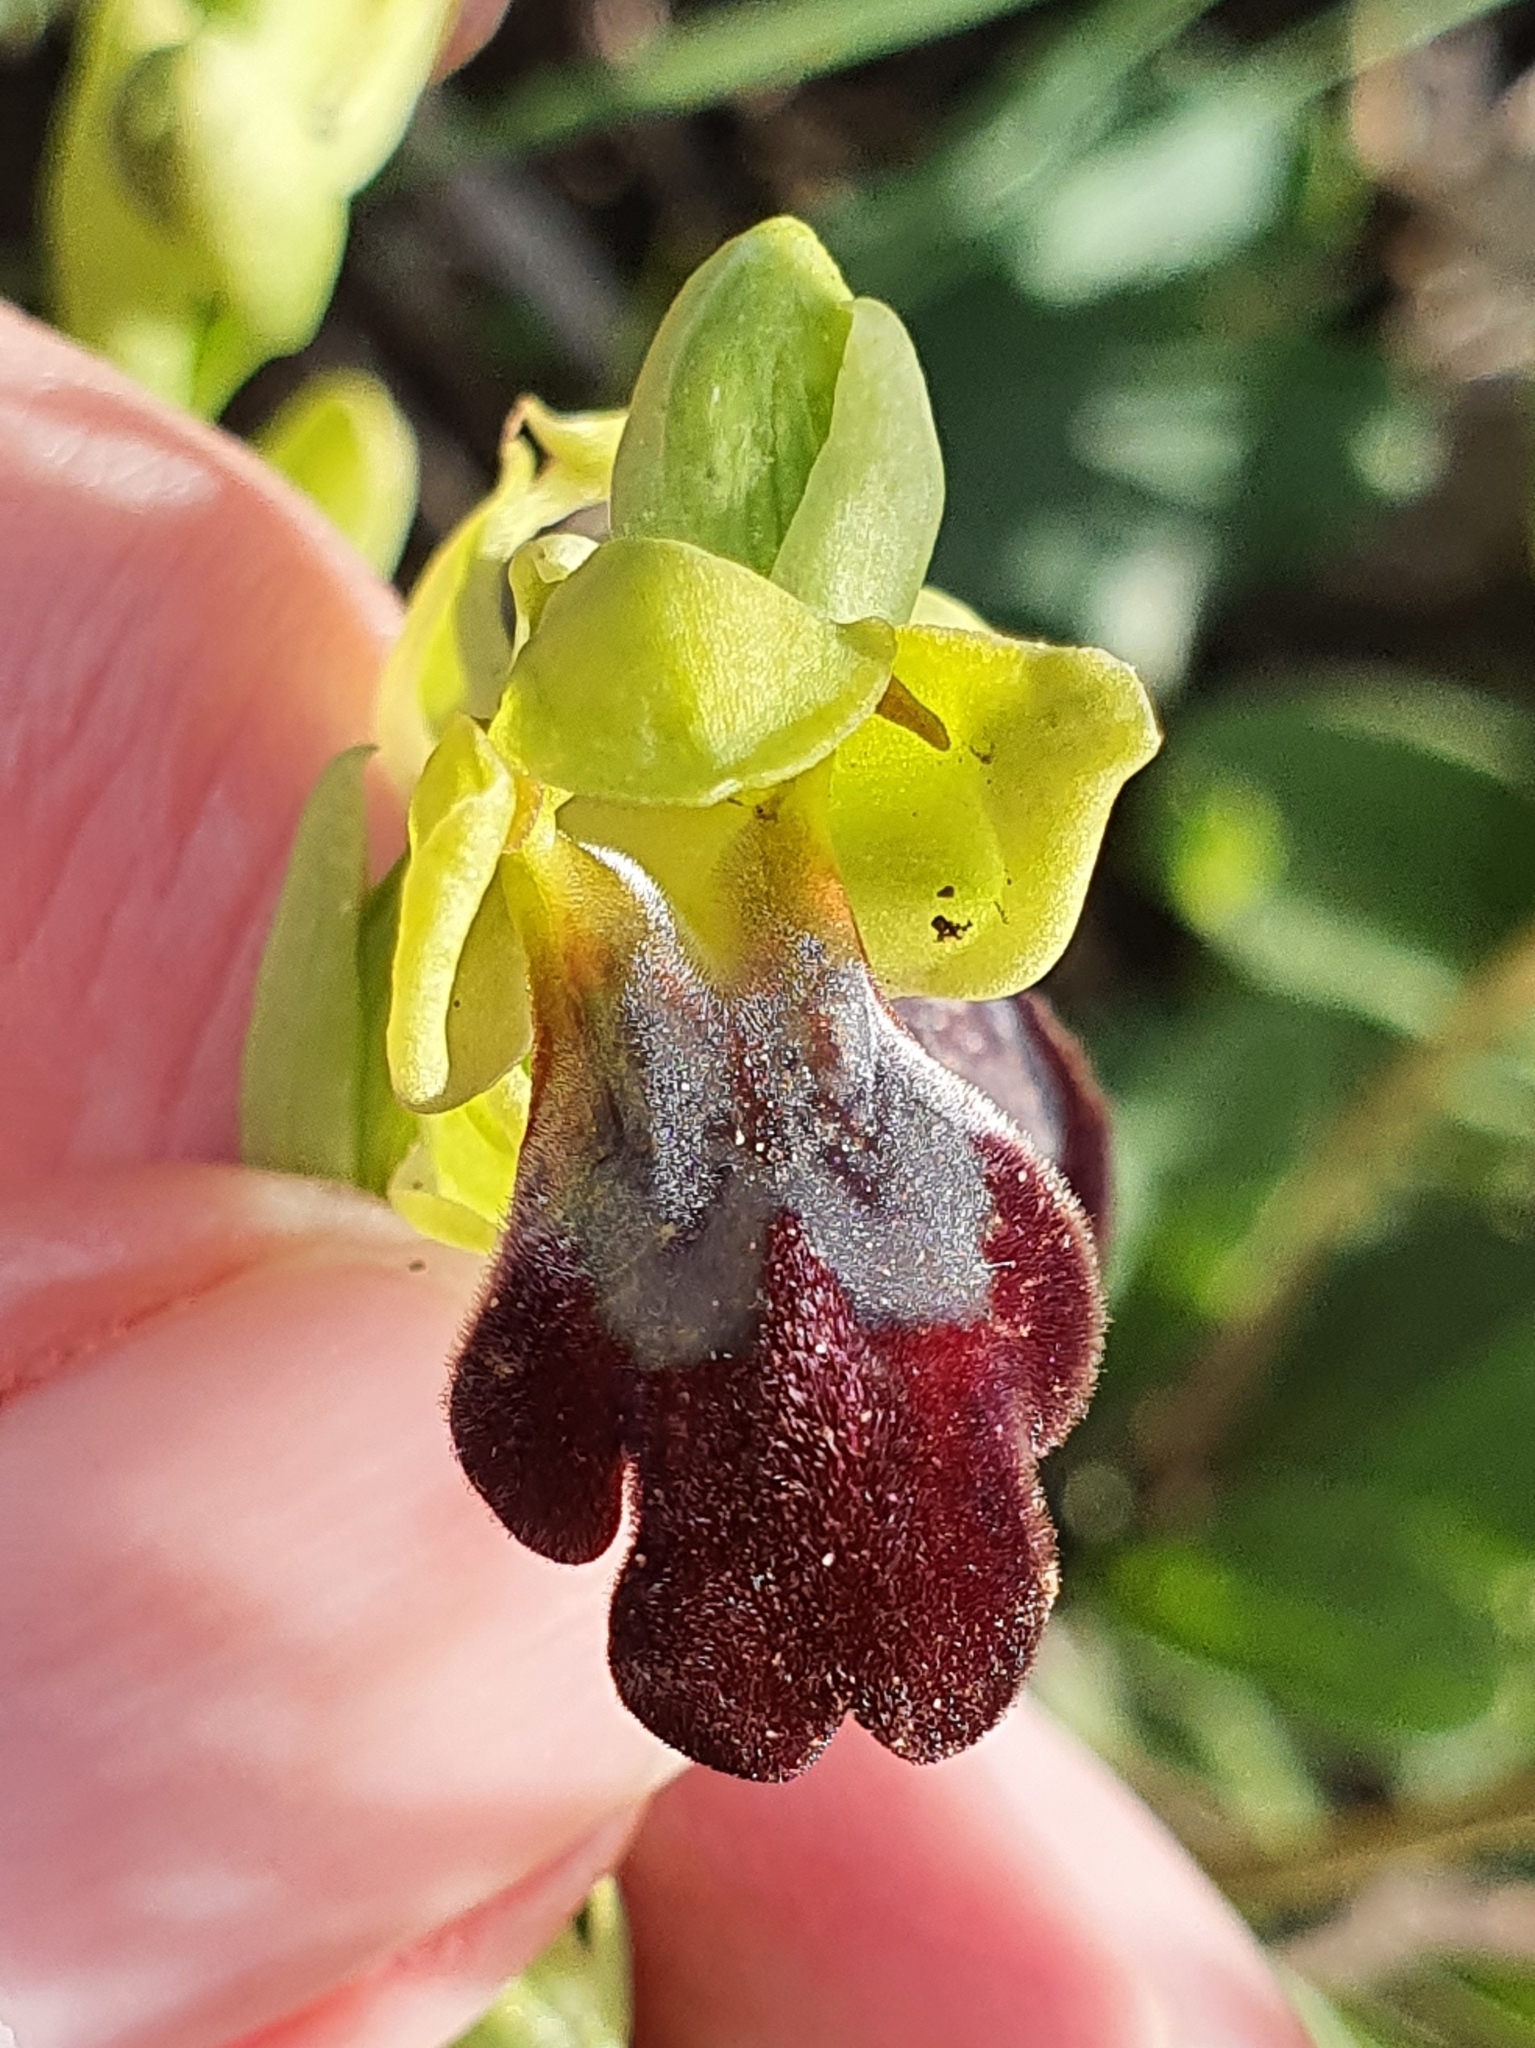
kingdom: Plantae
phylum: Tracheophyta
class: Liliopsida
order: Asparagales
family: Orchidaceae
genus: Ophrys
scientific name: Ophrys fusca
